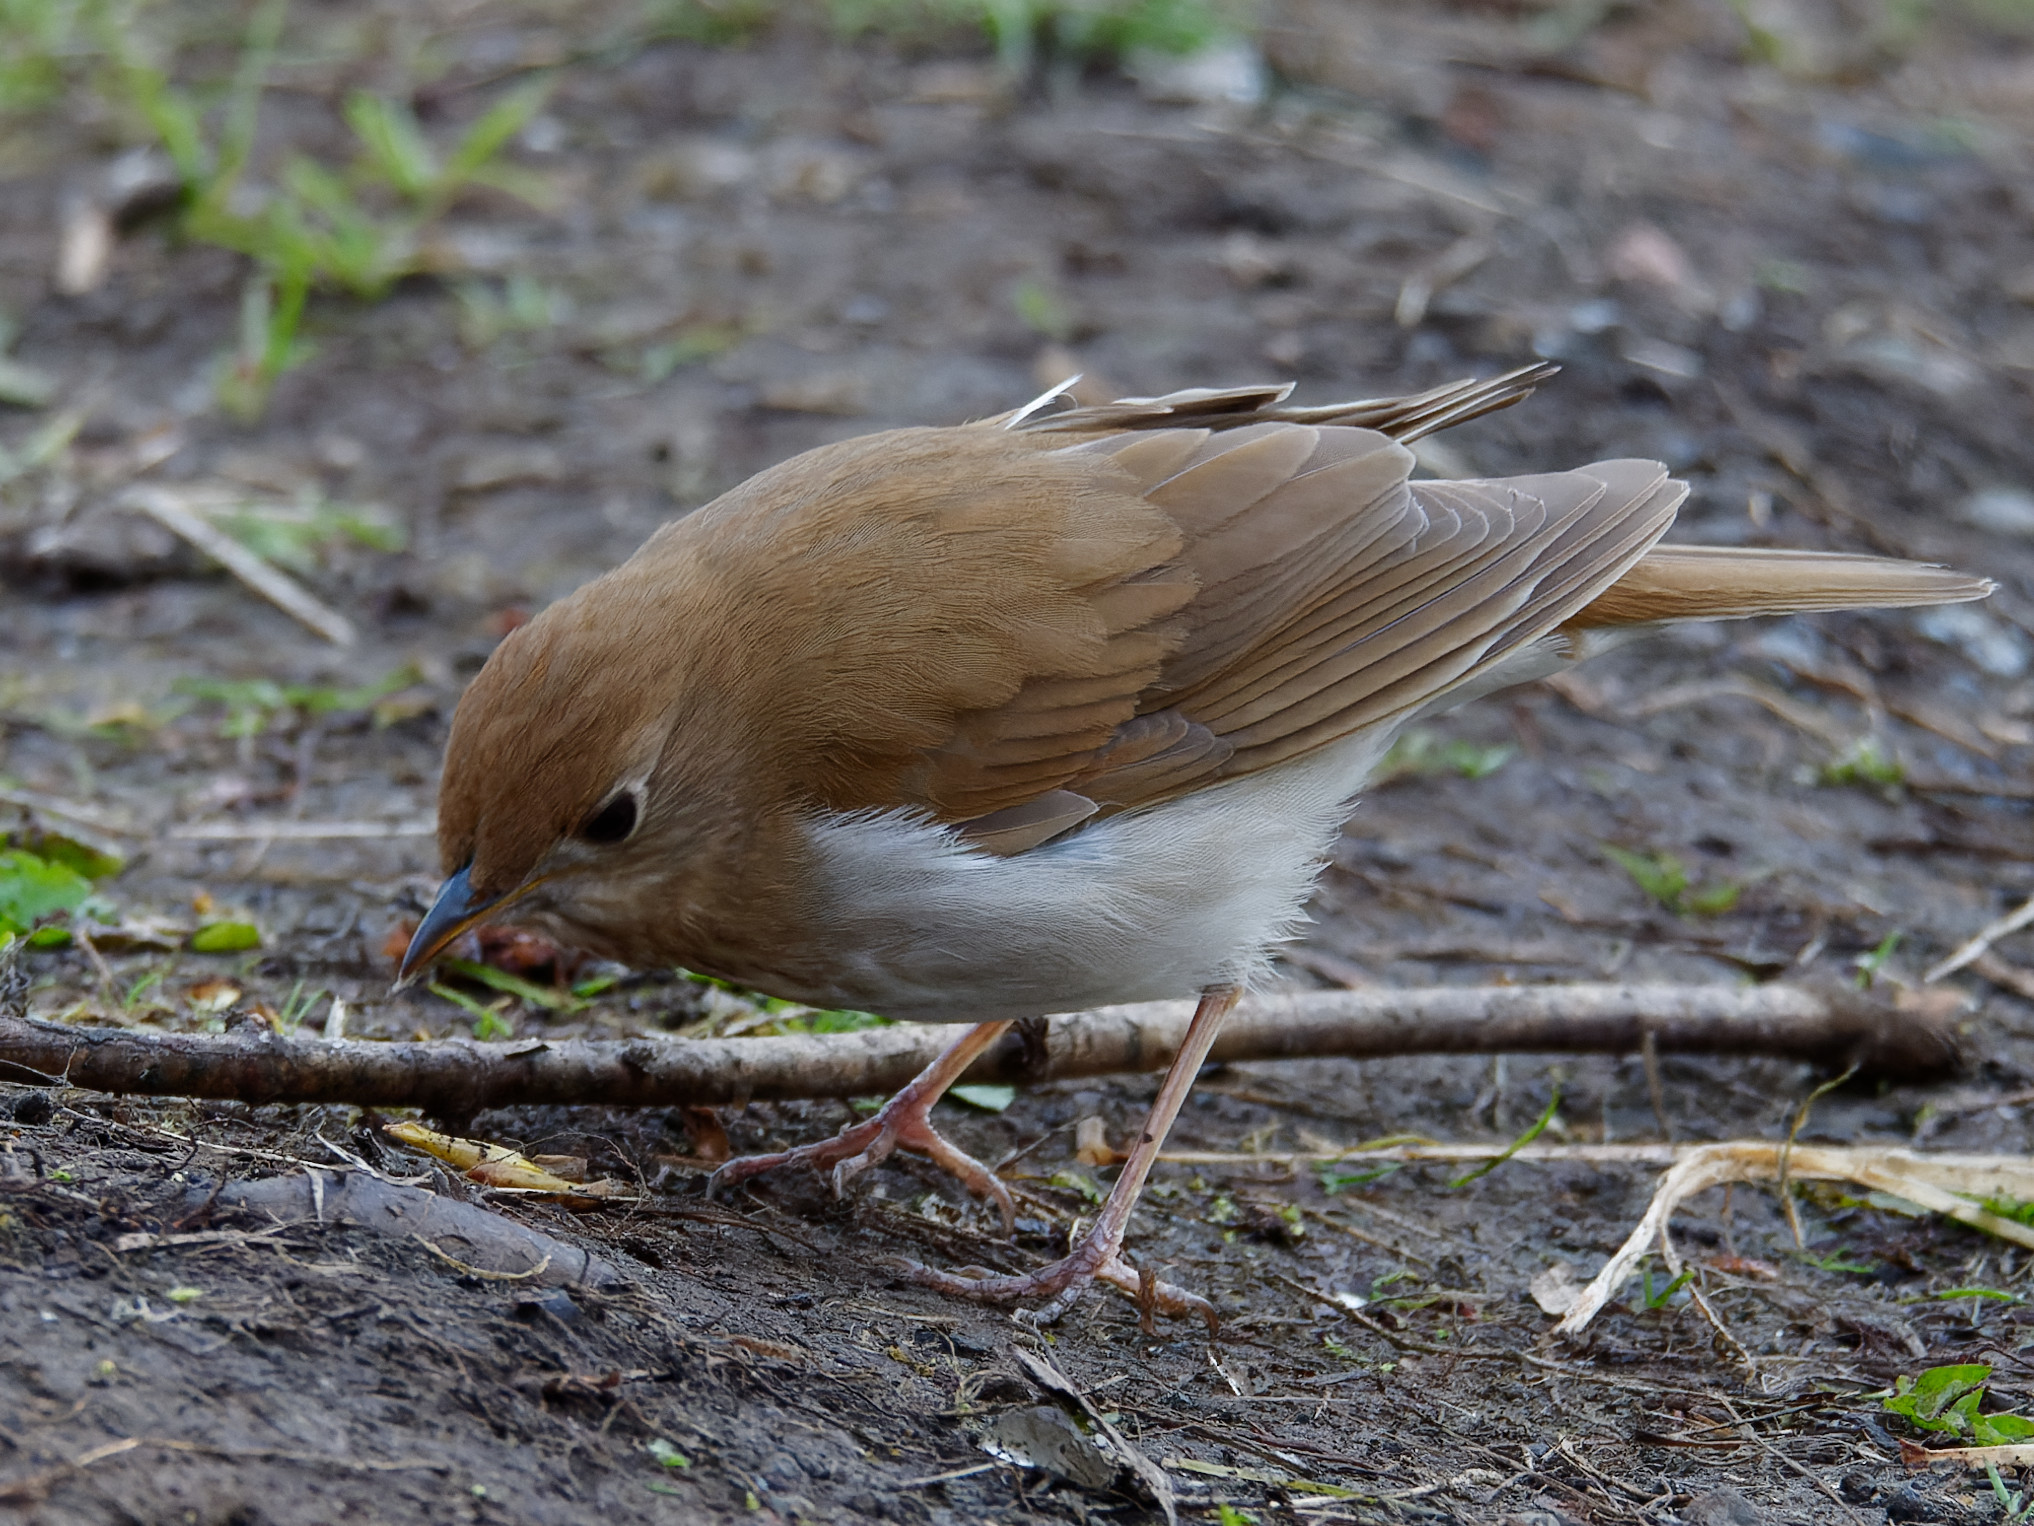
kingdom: Animalia
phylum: Chordata
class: Aves
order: Passeriformes
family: Turdidae
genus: Catharus
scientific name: Catharus fuscescens
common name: Veery
